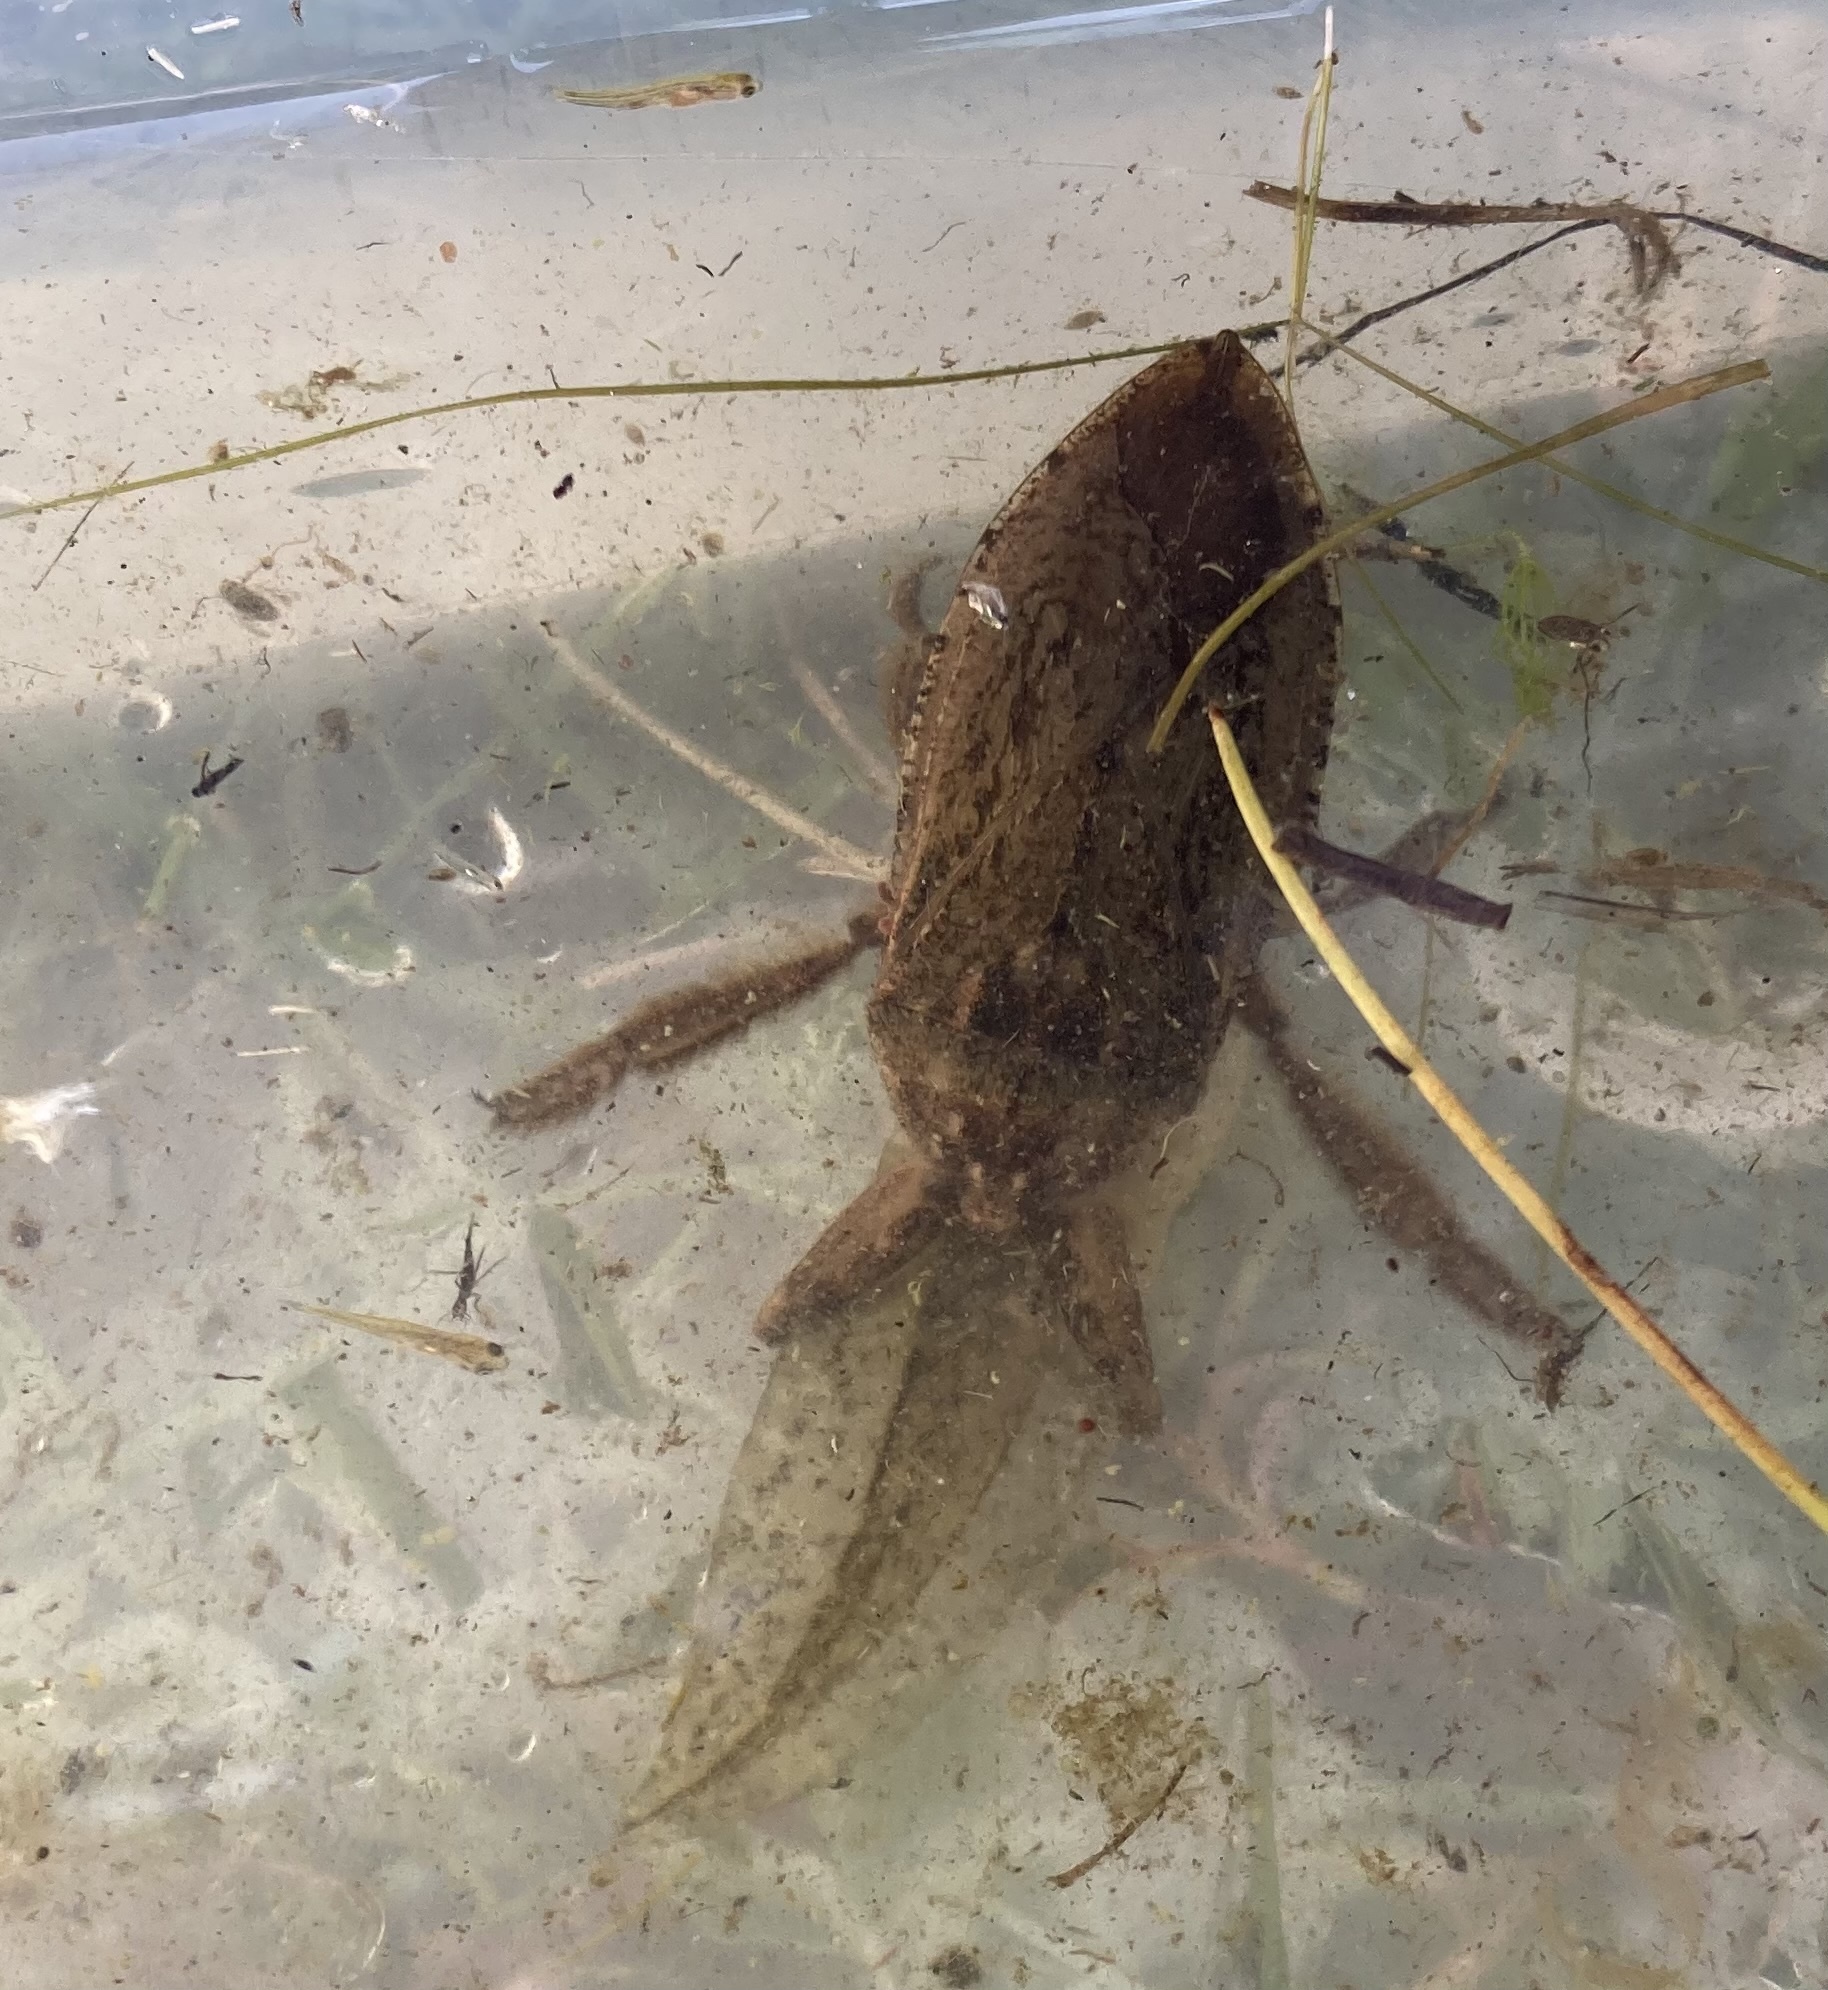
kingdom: Animalia
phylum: Arthropoda
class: Insecta
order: Hemiptera
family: Belostomatidae
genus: Lethocerus
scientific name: Lethocerus americanus
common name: Giant water bug
